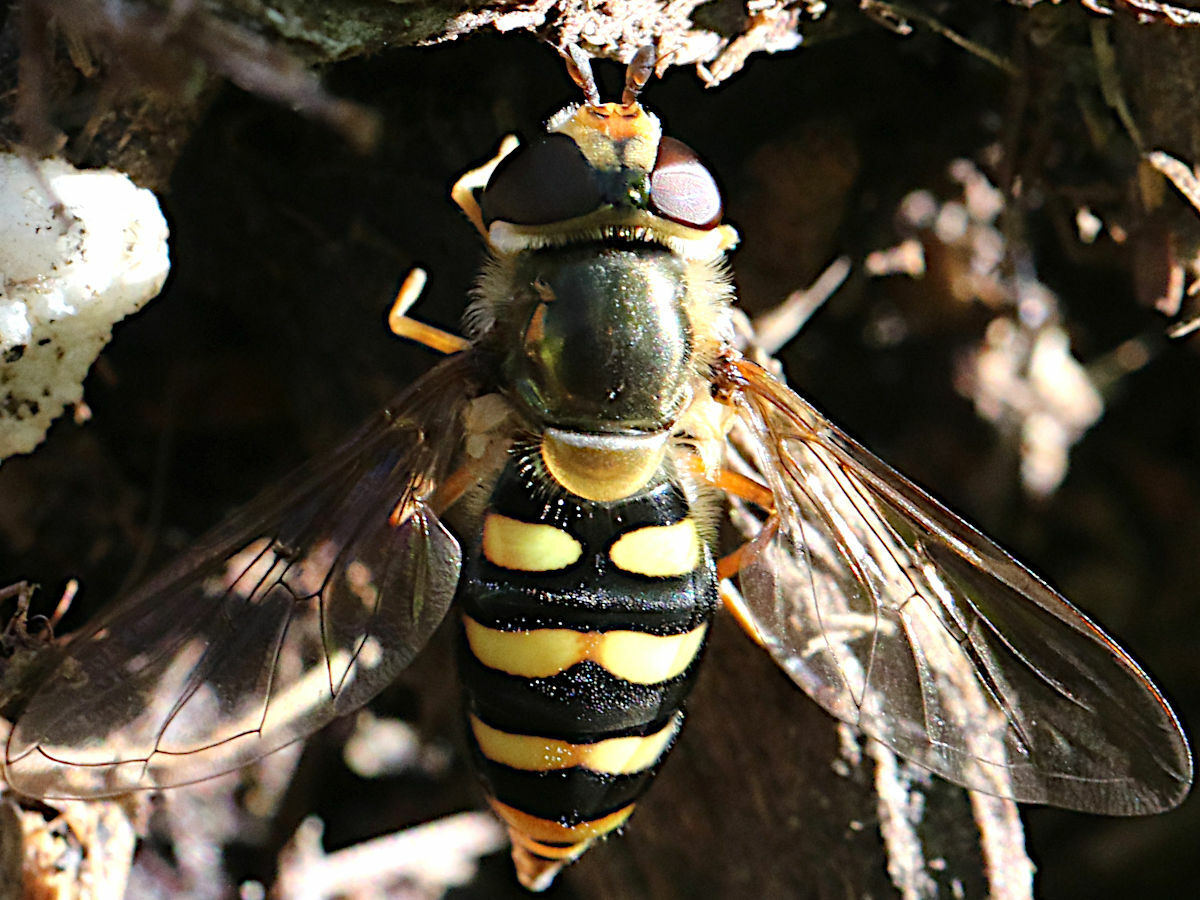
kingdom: Animalia
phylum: Arthropoda
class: Insecta
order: Diptera
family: Syrphidae
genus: Eupeodes
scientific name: Eupeodes fumipennis
